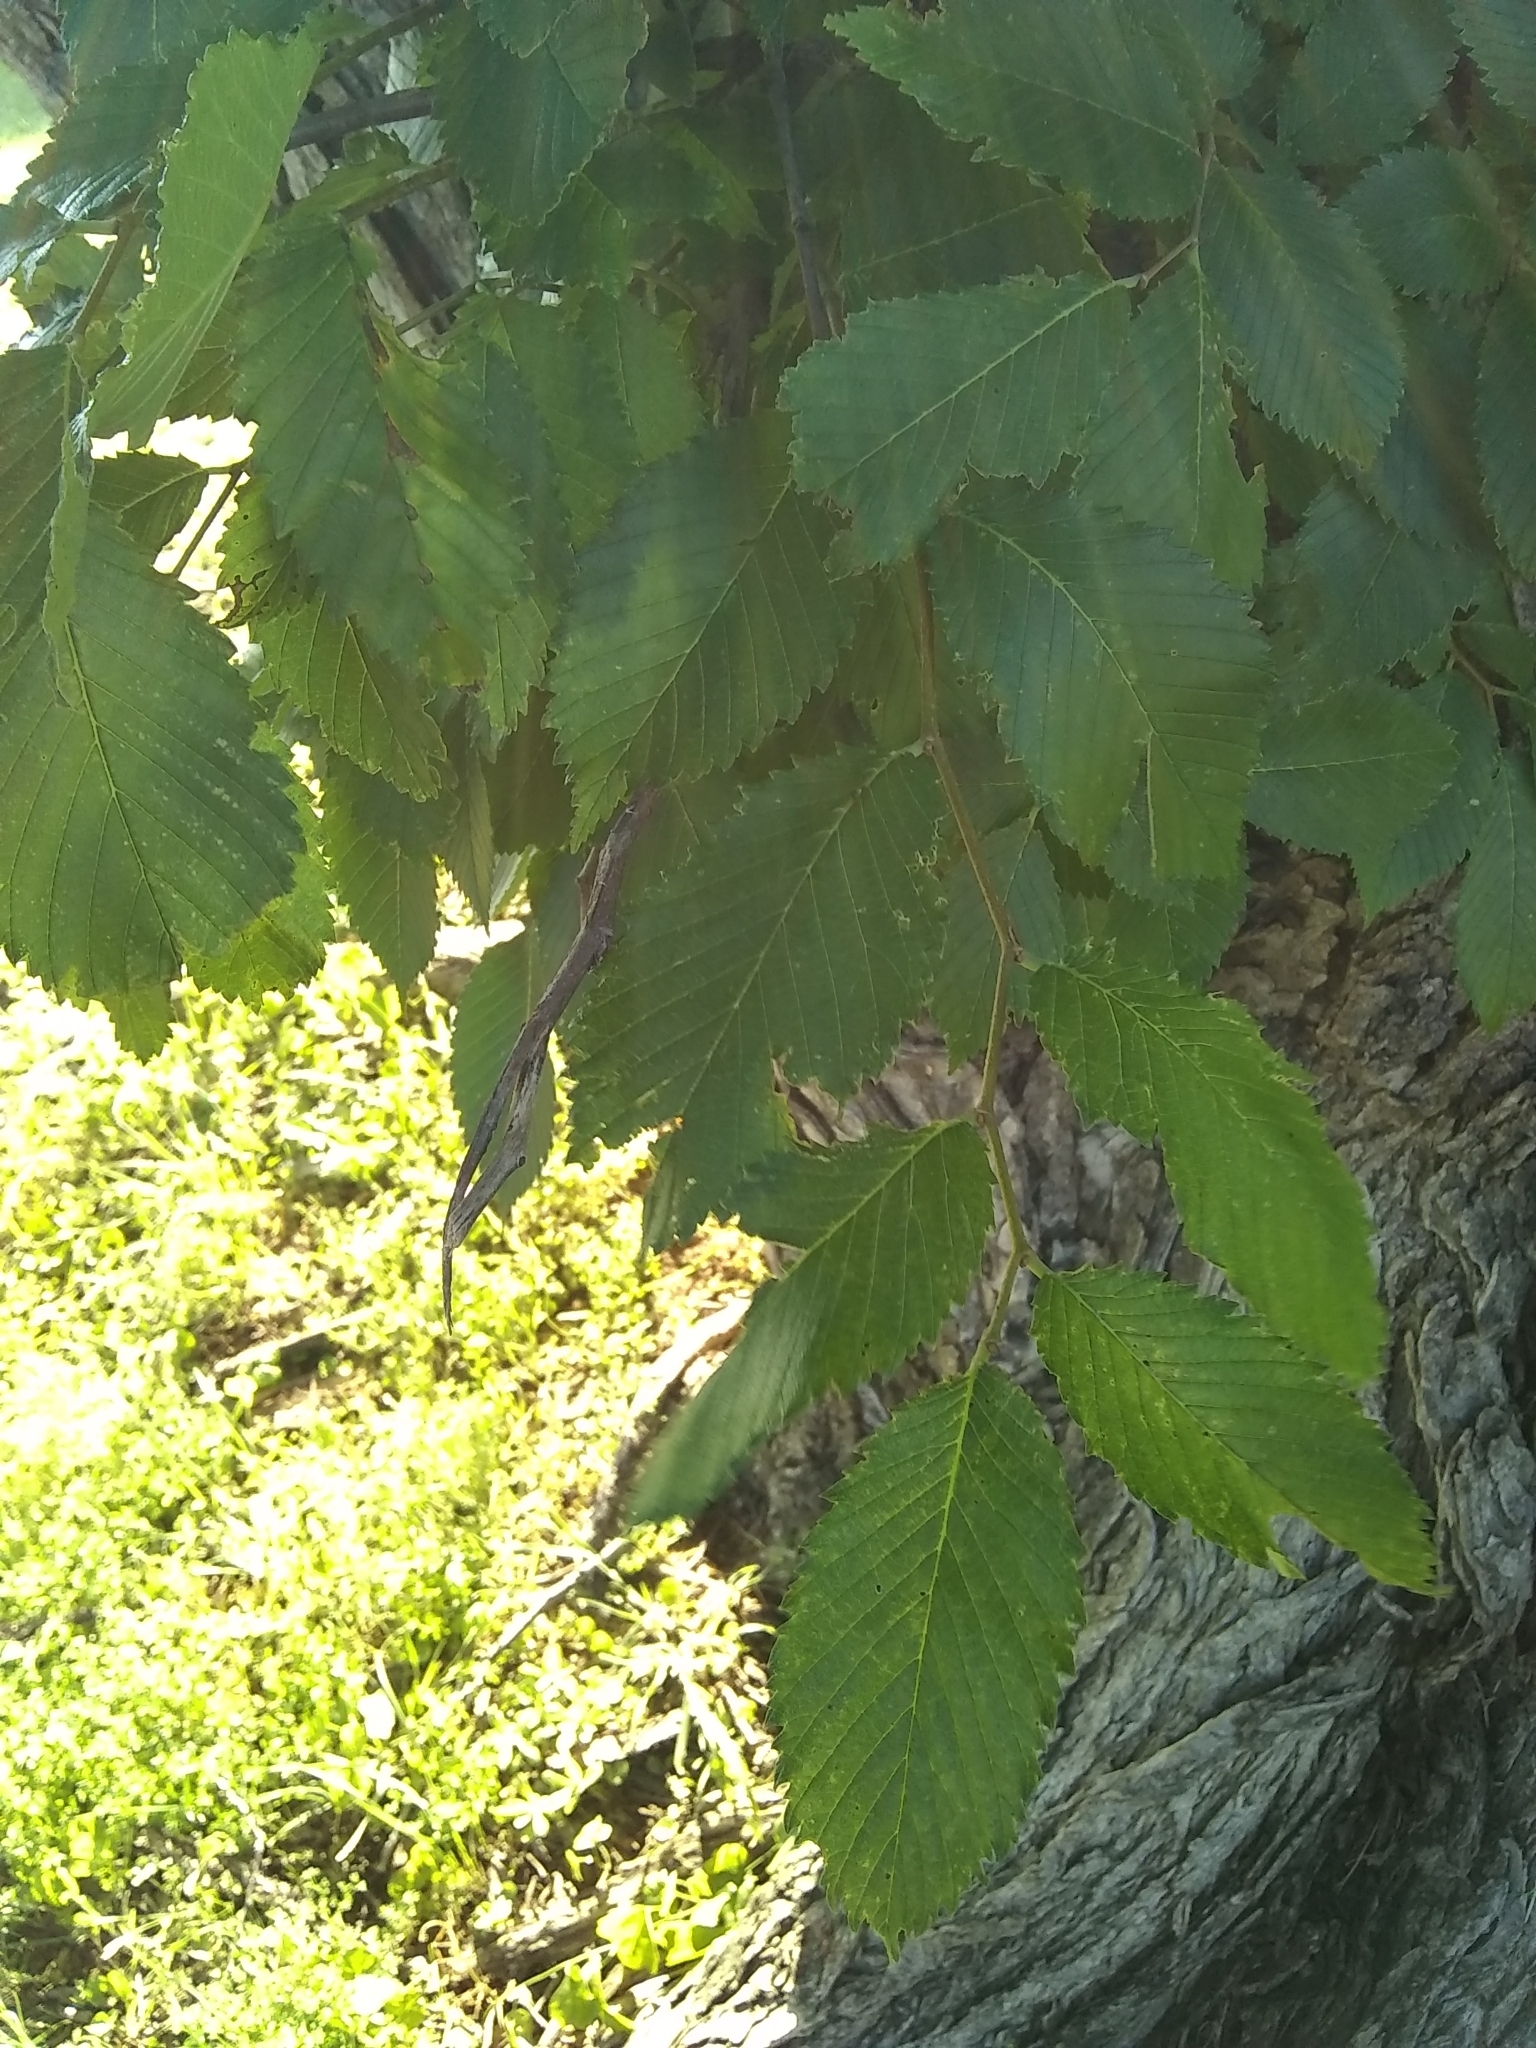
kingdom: Plantae
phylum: Tracheophyta
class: Magnoliopsida
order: Rosales
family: Ulmaceae
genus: Ulmus
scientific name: Ulmus americana
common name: American elm
